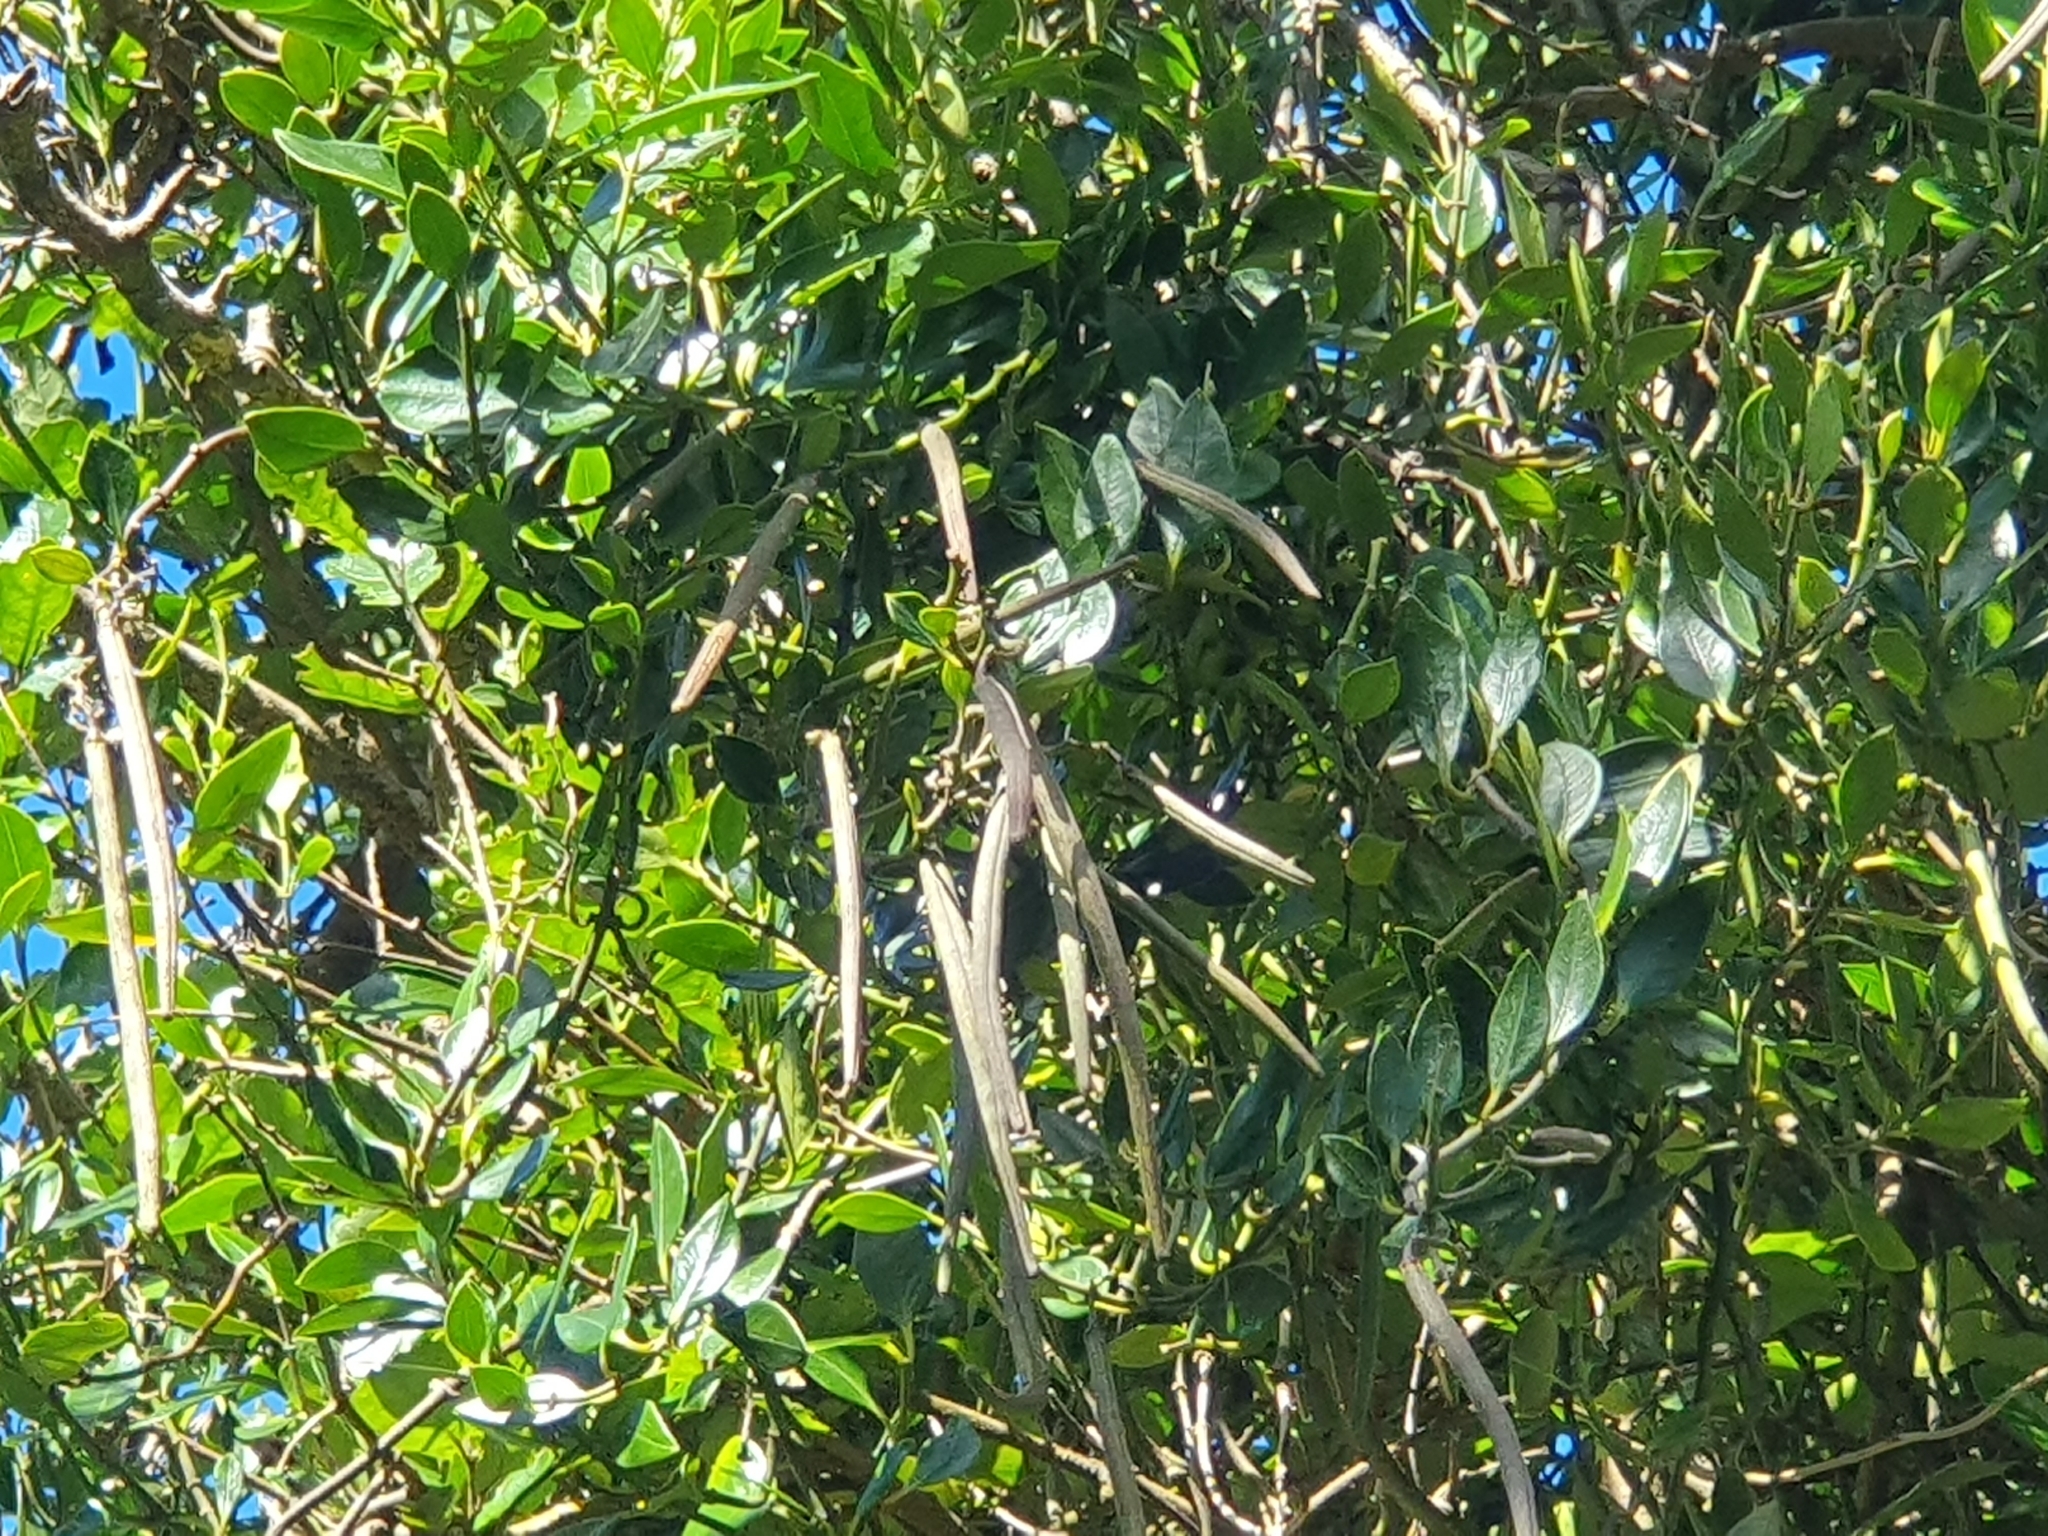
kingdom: Plantae
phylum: Tracheophyta
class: Magnoliopsida
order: Gentianales
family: Apocynaceae
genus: Parsonsia
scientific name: Parsonsia heterophylla
